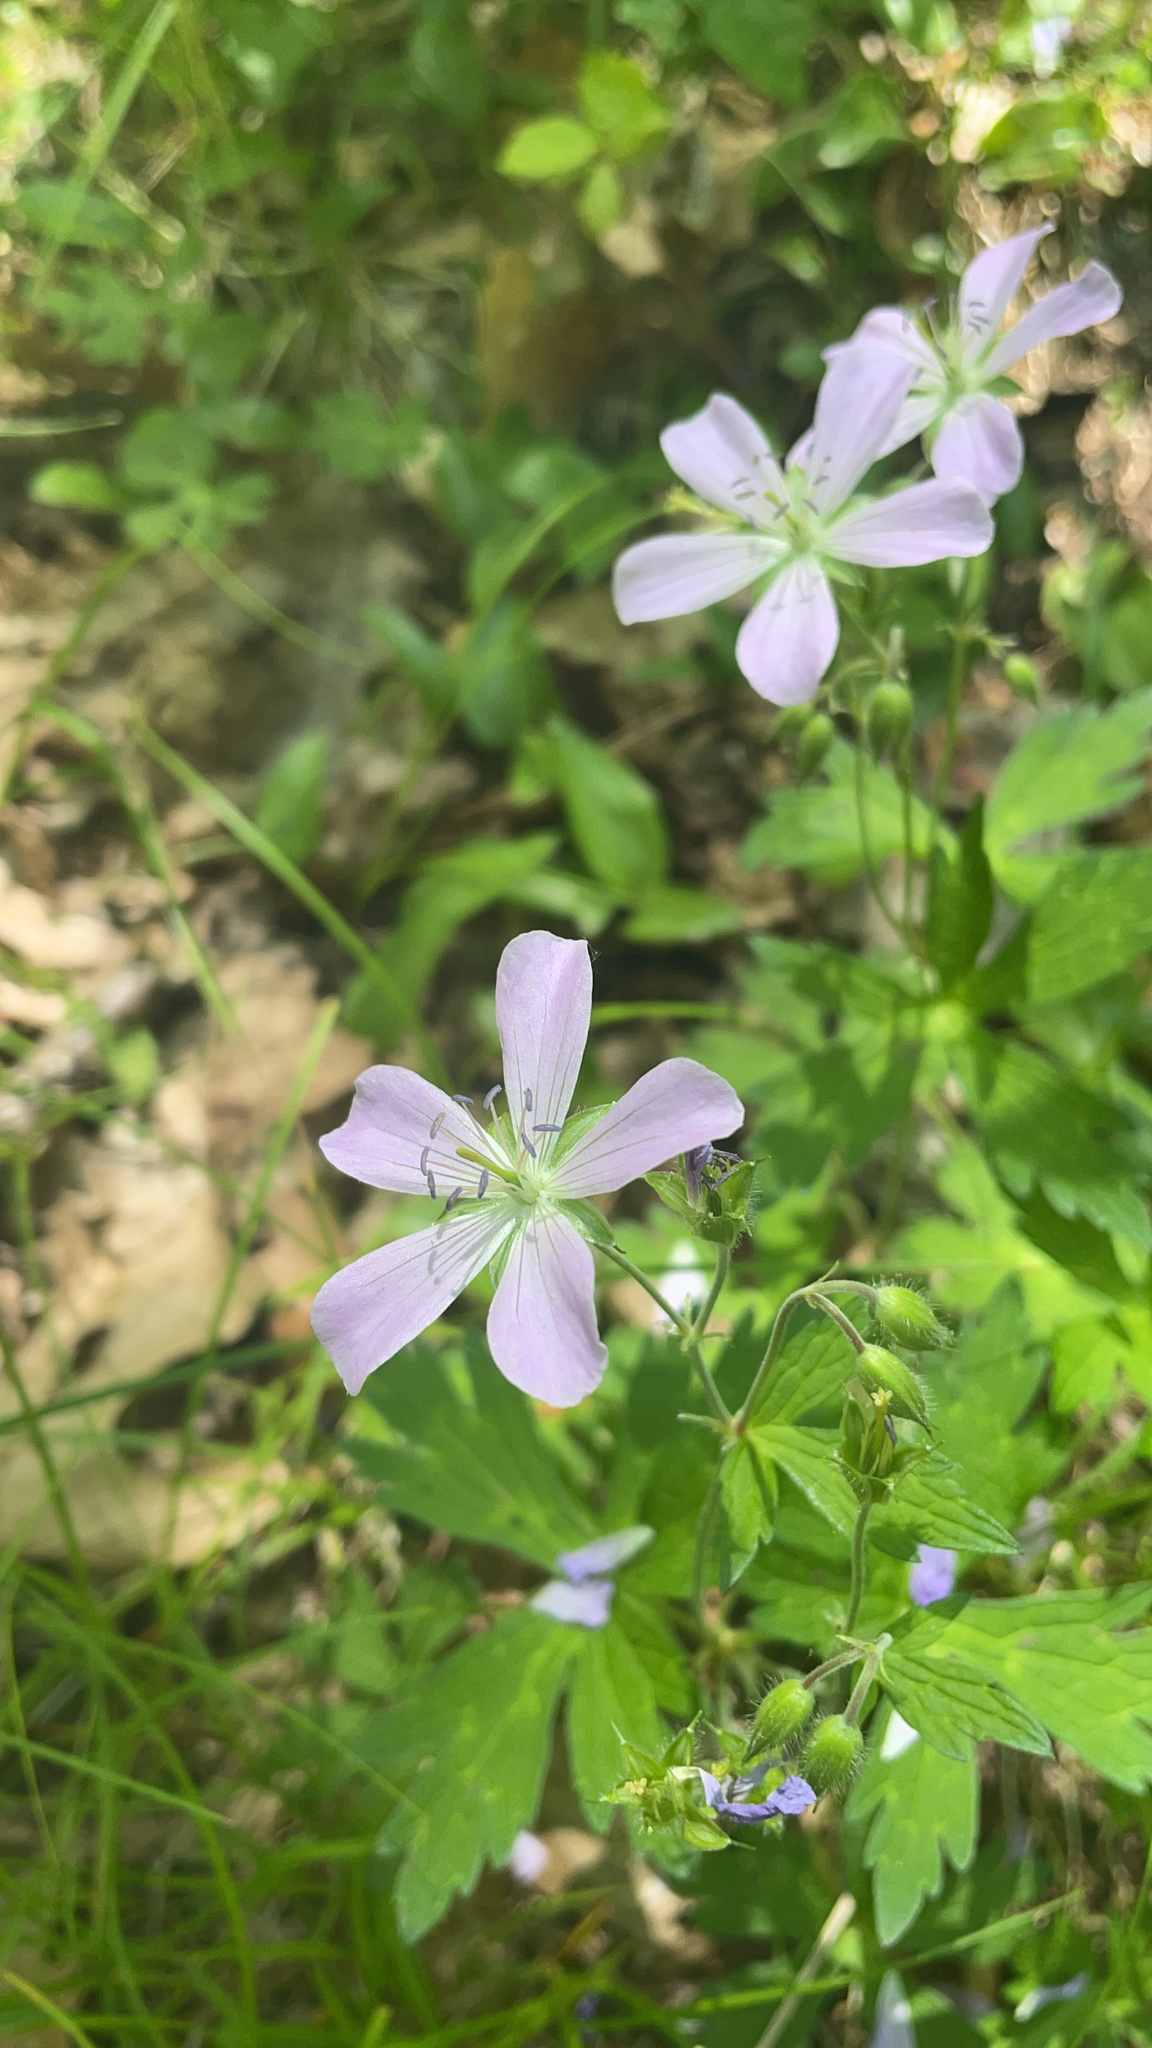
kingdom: Plantae
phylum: Tracheophyta
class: Magnoliopsida
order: Geraniales
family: Geraniaceae
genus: Geranium
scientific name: Geranium maculatum
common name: Spotted geranium
